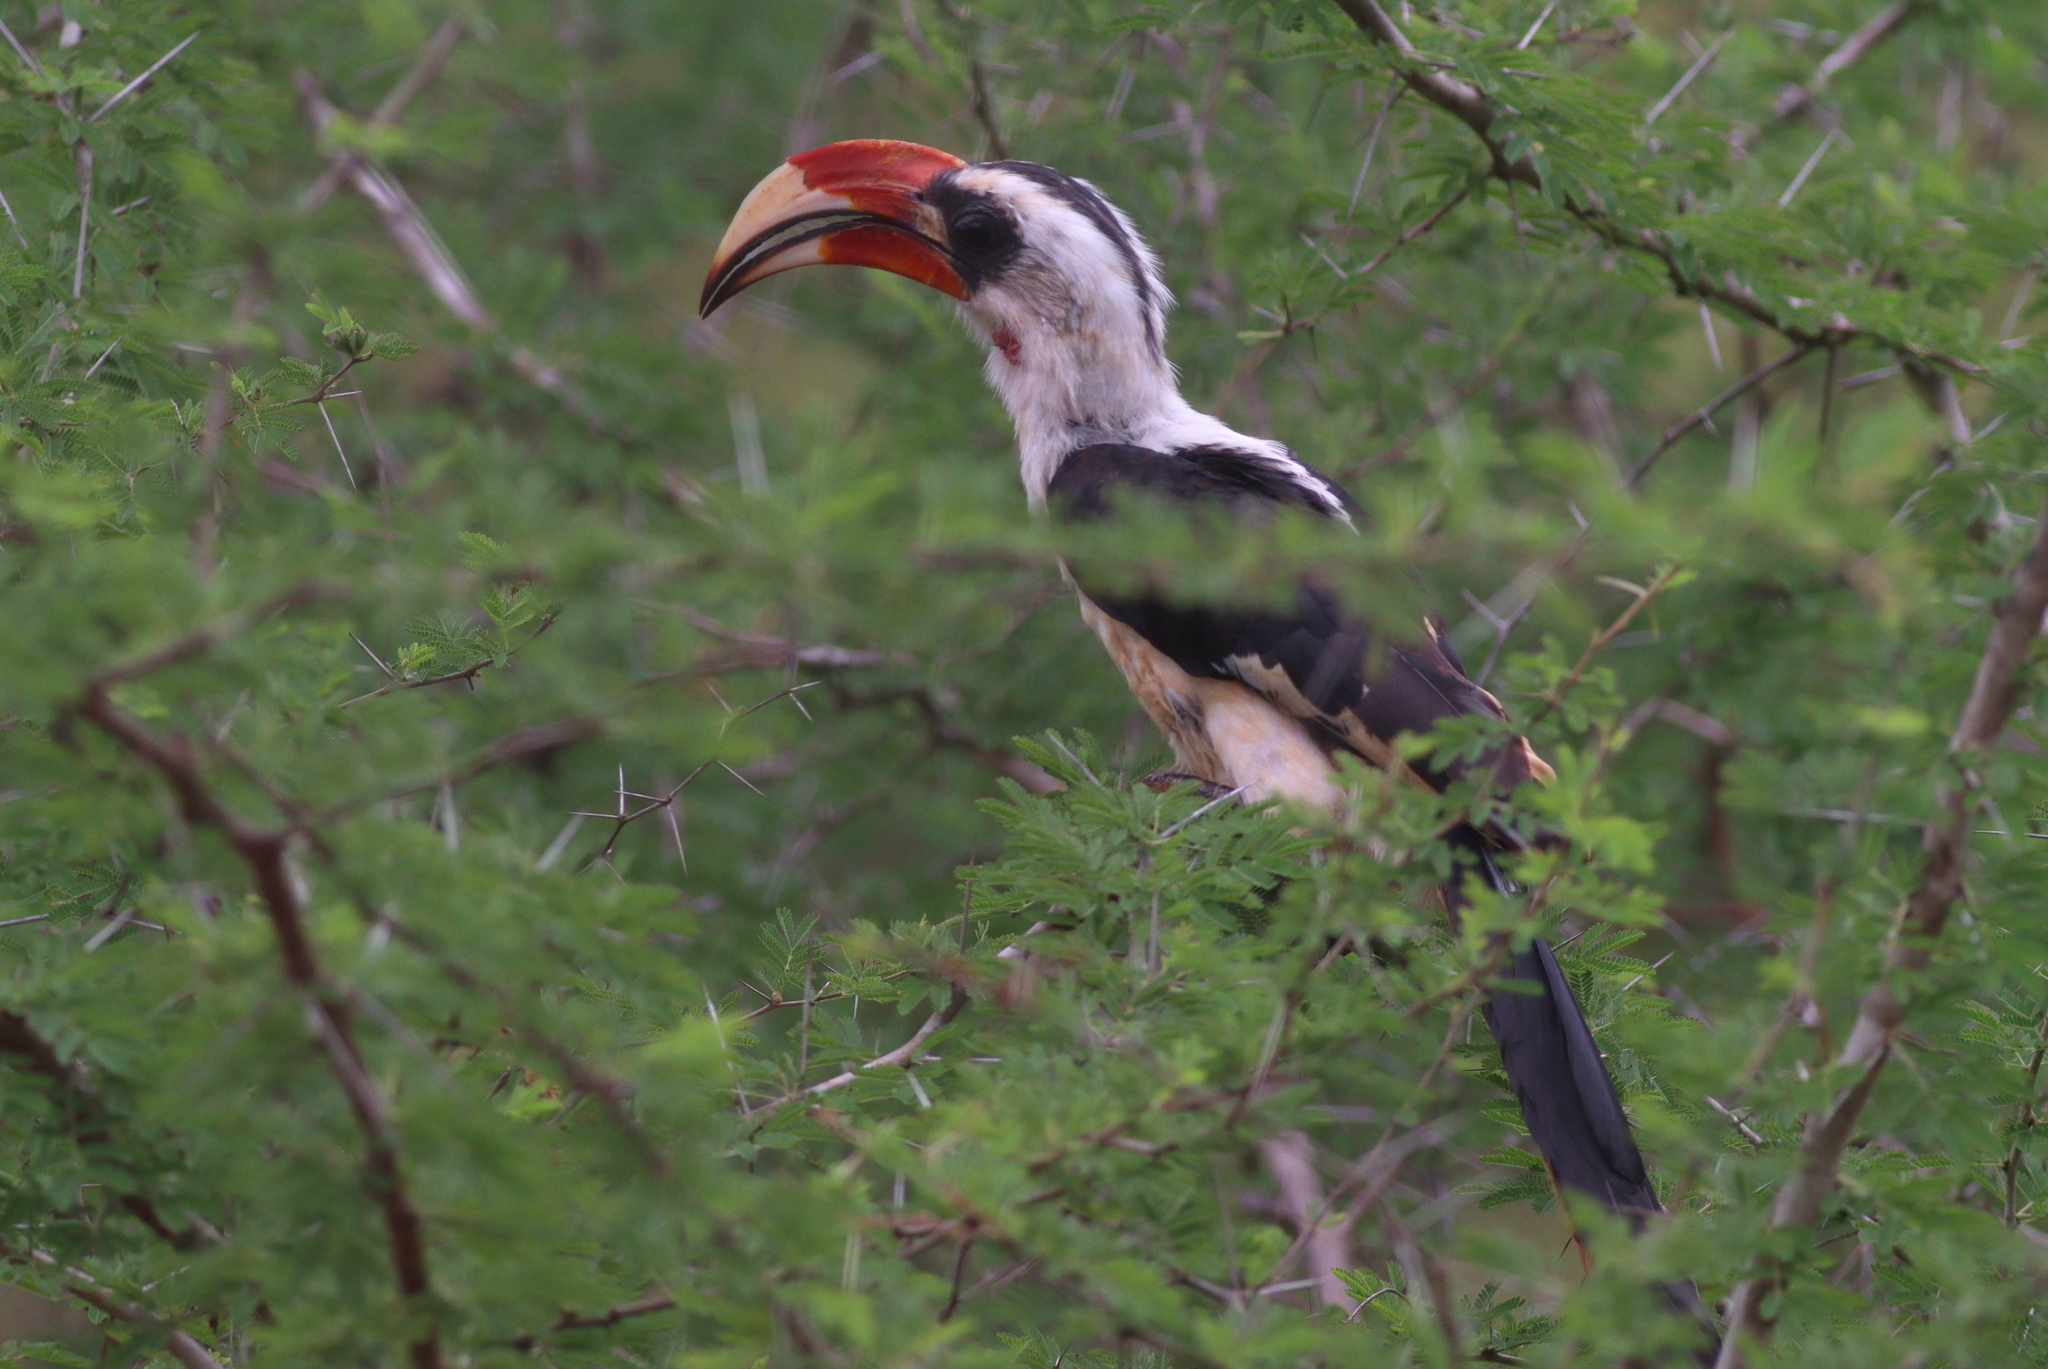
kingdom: Animalia
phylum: Chordata
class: Aves
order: Bucerotiformes
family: Bucerotidae
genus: Tockus
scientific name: Tockus deckeni
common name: Von der decken's hornbill
